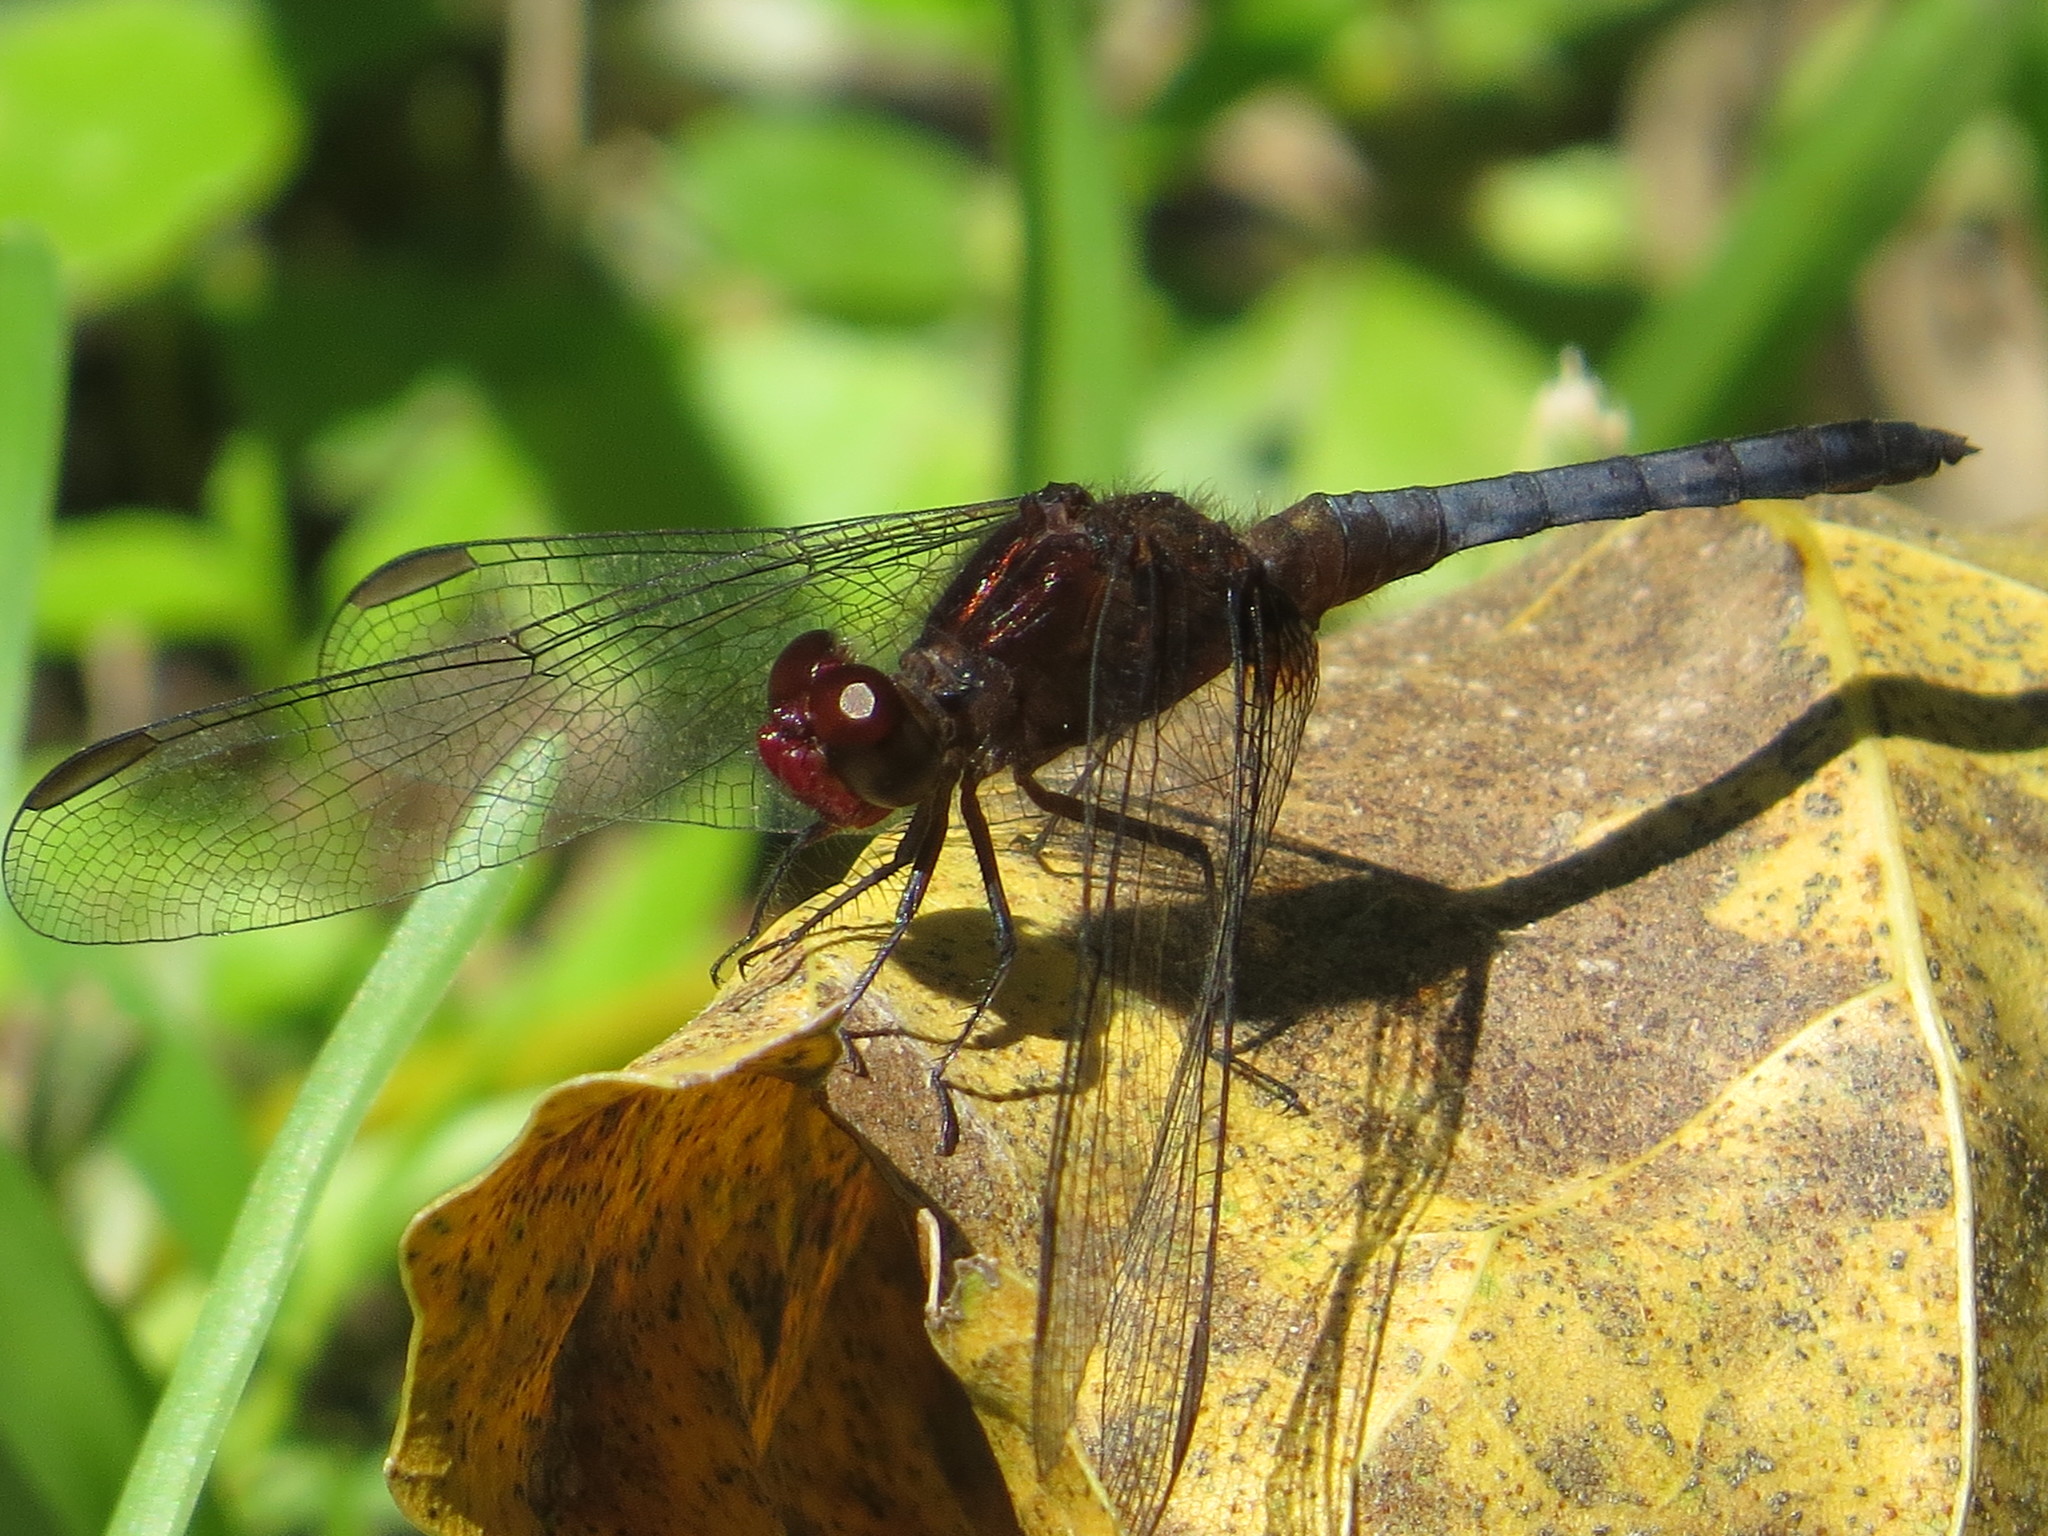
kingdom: Animalia
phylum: Arthropoda
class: Insecta
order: Odonata
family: Libellulidae
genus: Erythrodiplax
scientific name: Erythrodiplax melanorubra
